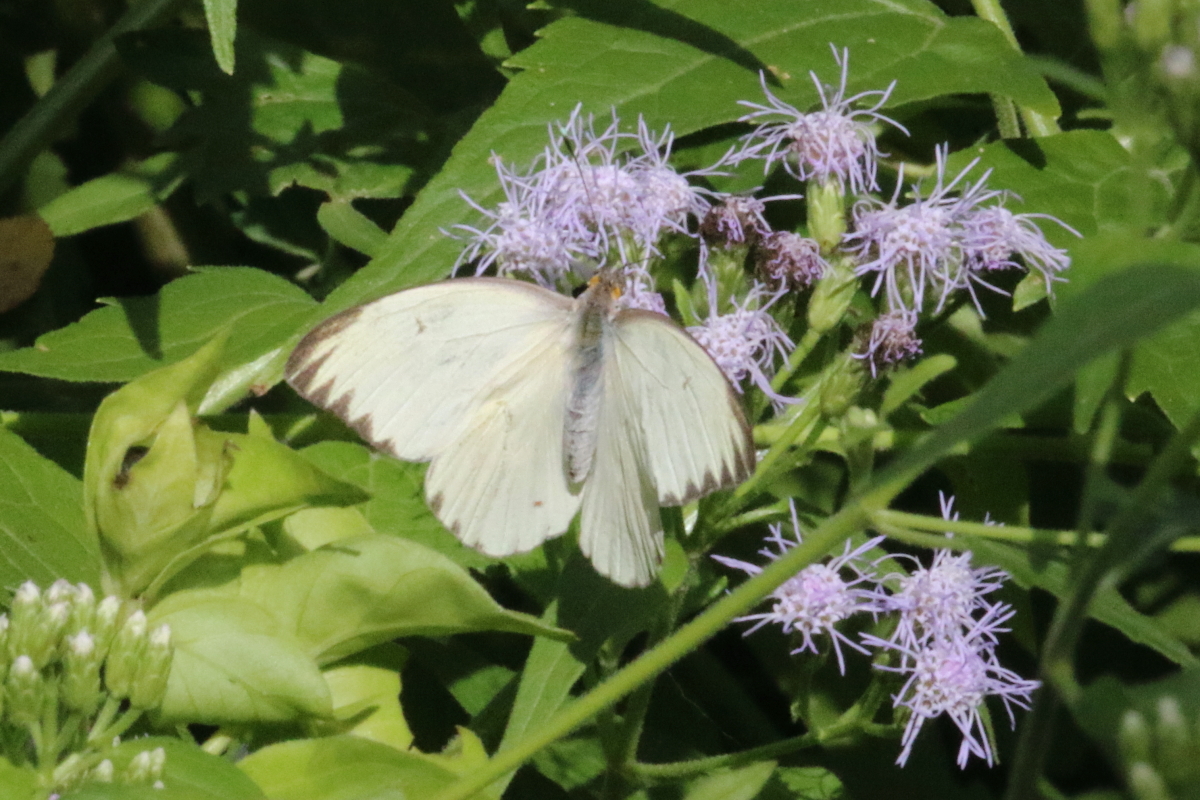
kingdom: Animalia
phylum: Arthropoda
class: Insecta
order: Lepidoptera
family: Pieridae
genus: Ascia
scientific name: Ascia monuste
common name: Great southern white
